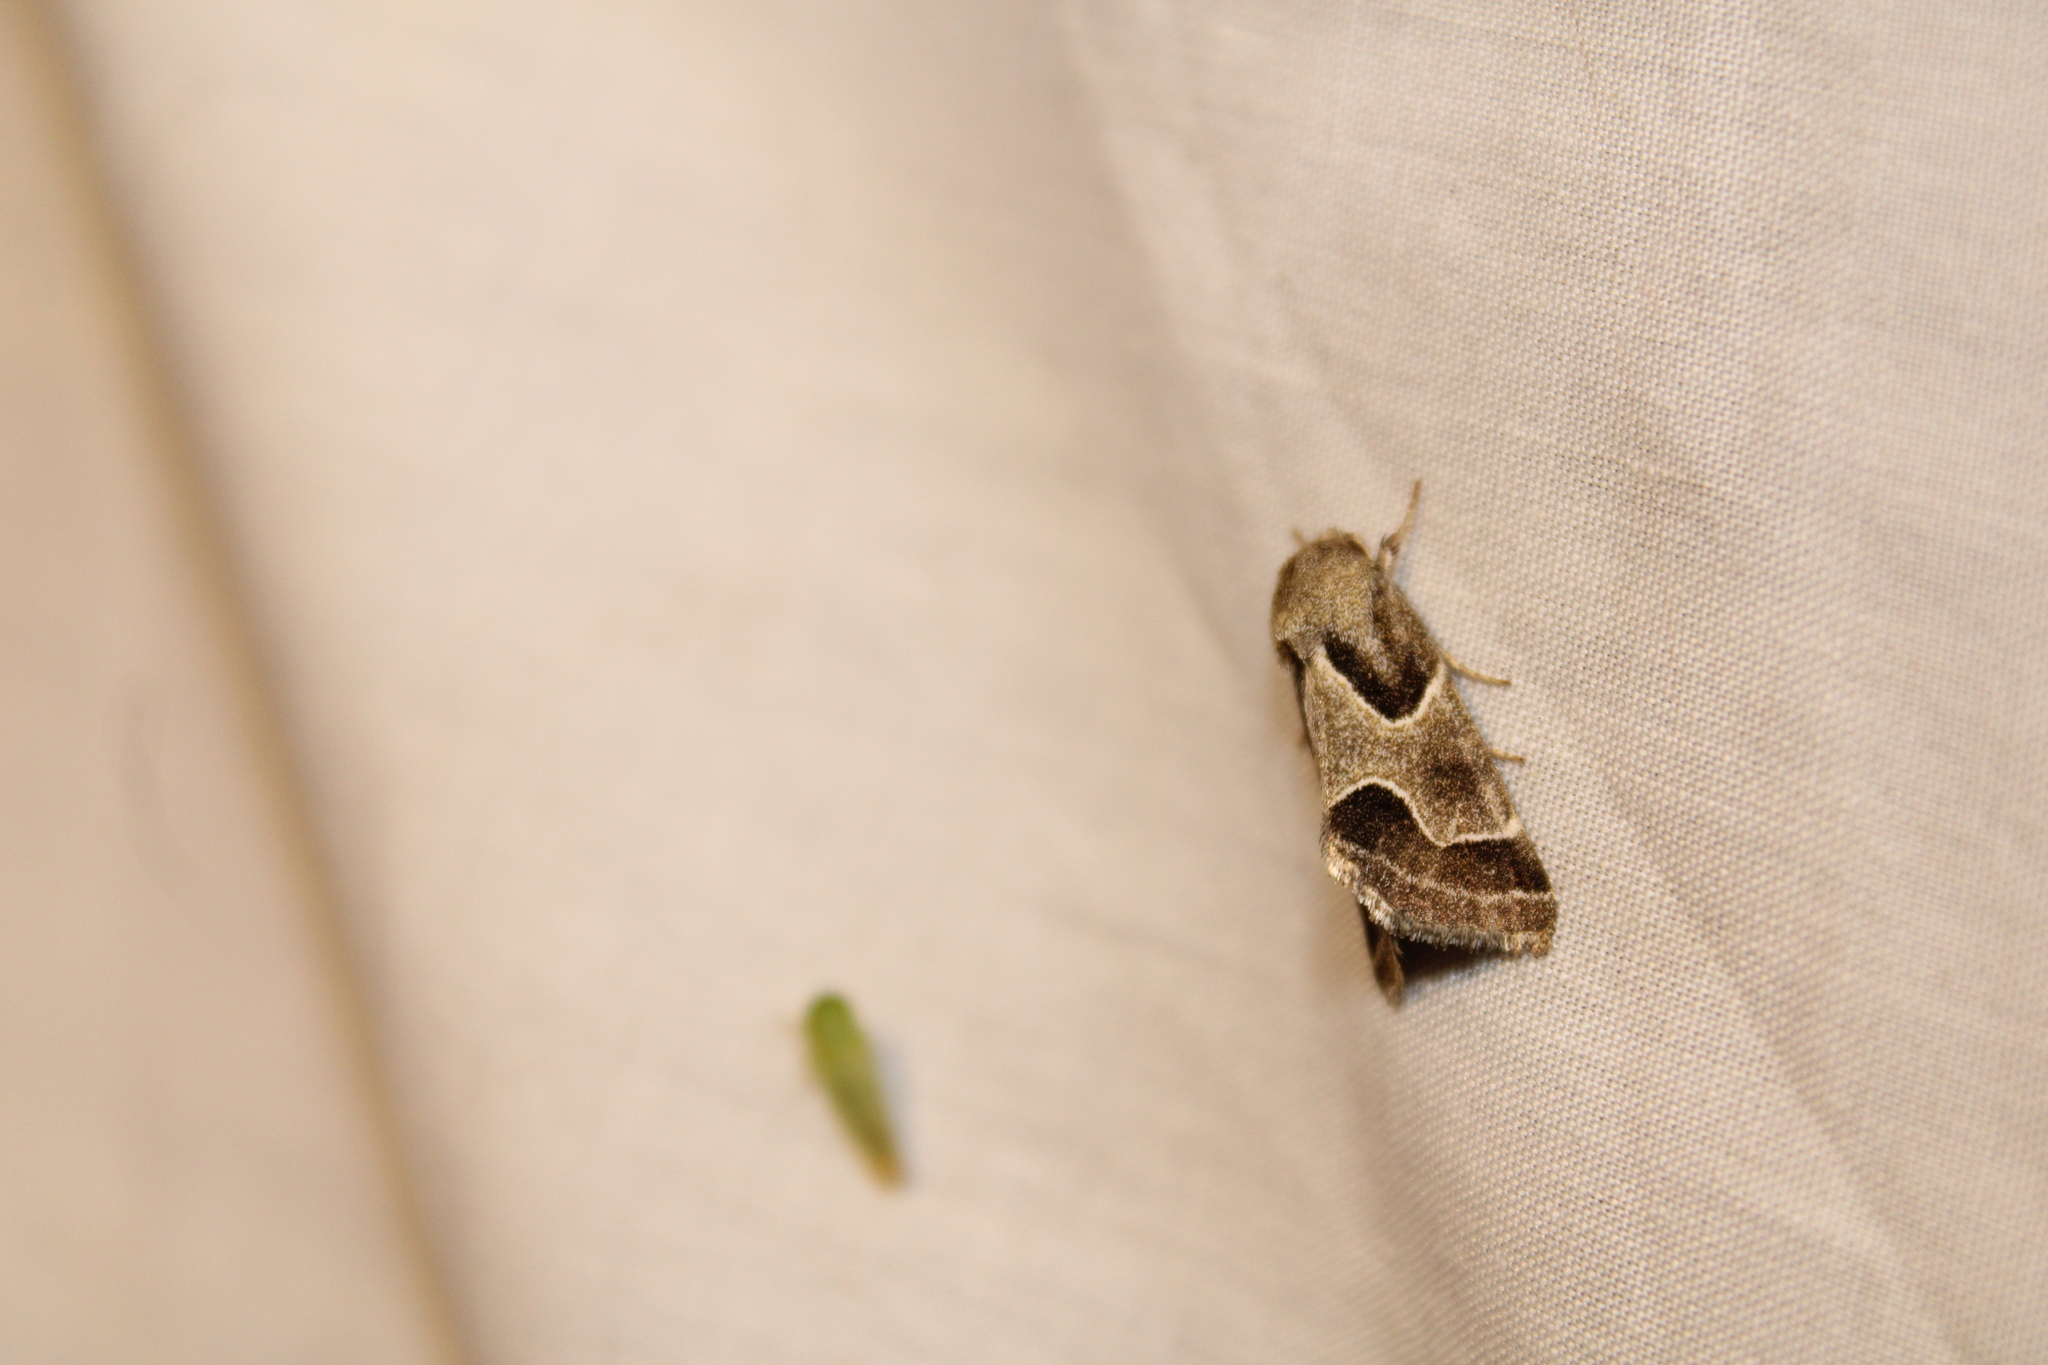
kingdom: Animalia
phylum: Arthropoda
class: Insecta
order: Lepidoptera
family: Noctuidae
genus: Schinia
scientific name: Schinia rivulosa
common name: Scarce meal-moth
